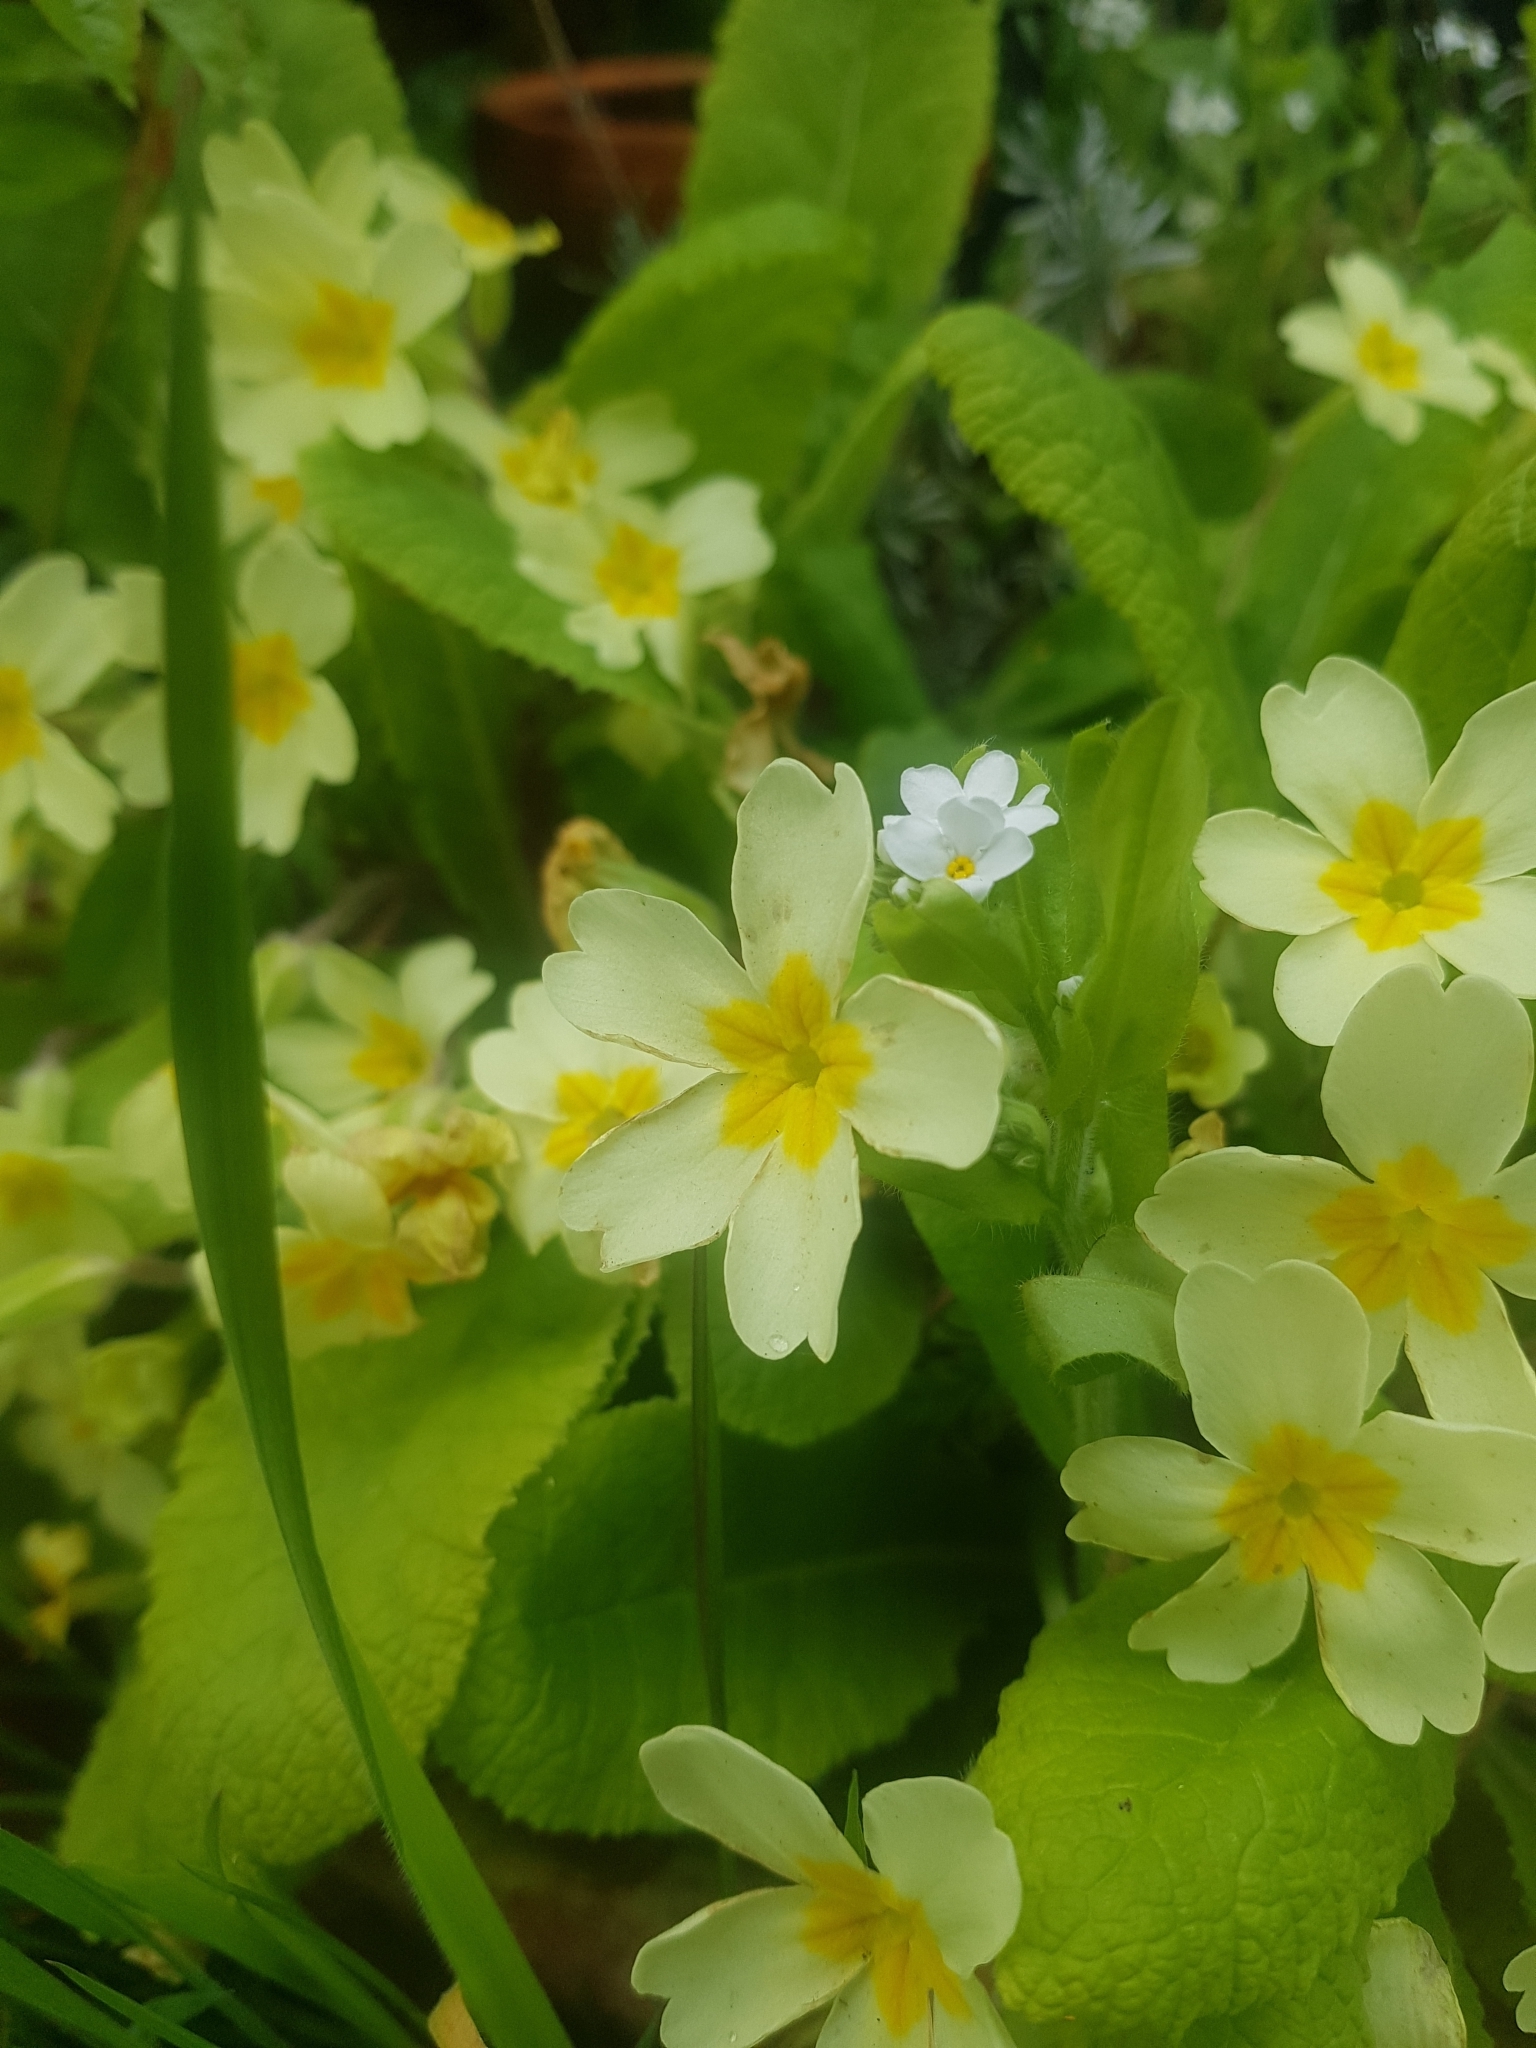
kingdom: Plantae
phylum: Tracheophyta
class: Magnoliopsida
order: Ericales
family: Primulaceae
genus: Primula
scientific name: Primula vulgaris
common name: Primrose
